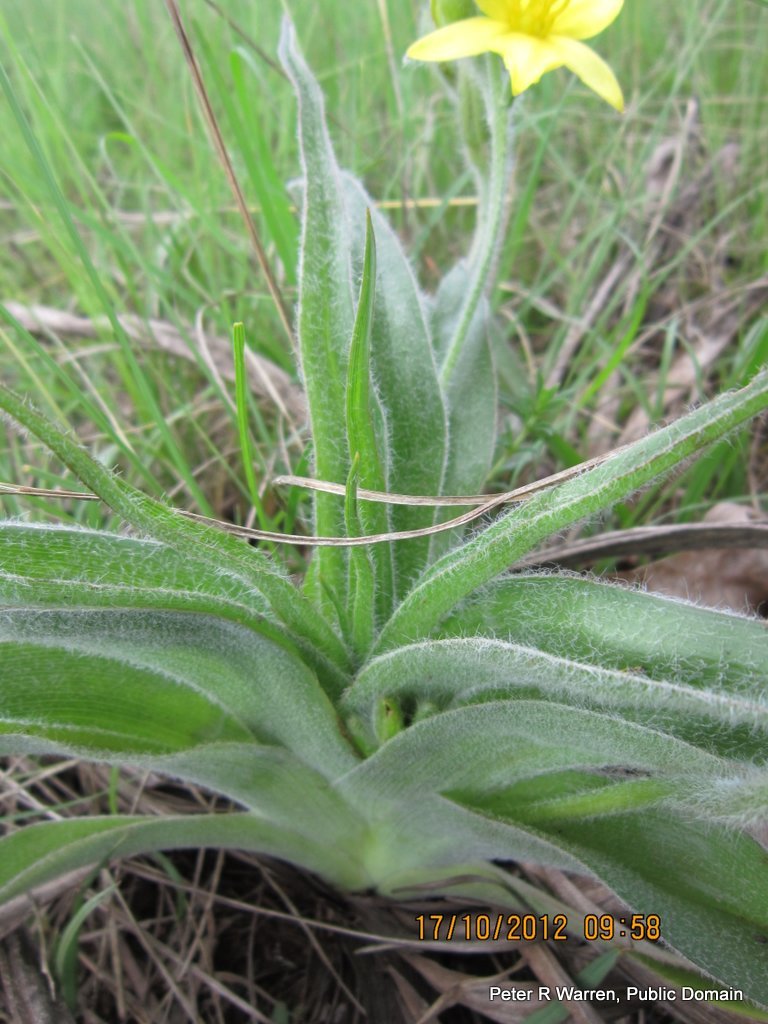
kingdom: Plantae
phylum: Tracheophyta
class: Liliopsida
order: Asparagales
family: Hypoxidaceae
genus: Hypoxis
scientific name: Hypoxis hemerocallidea
